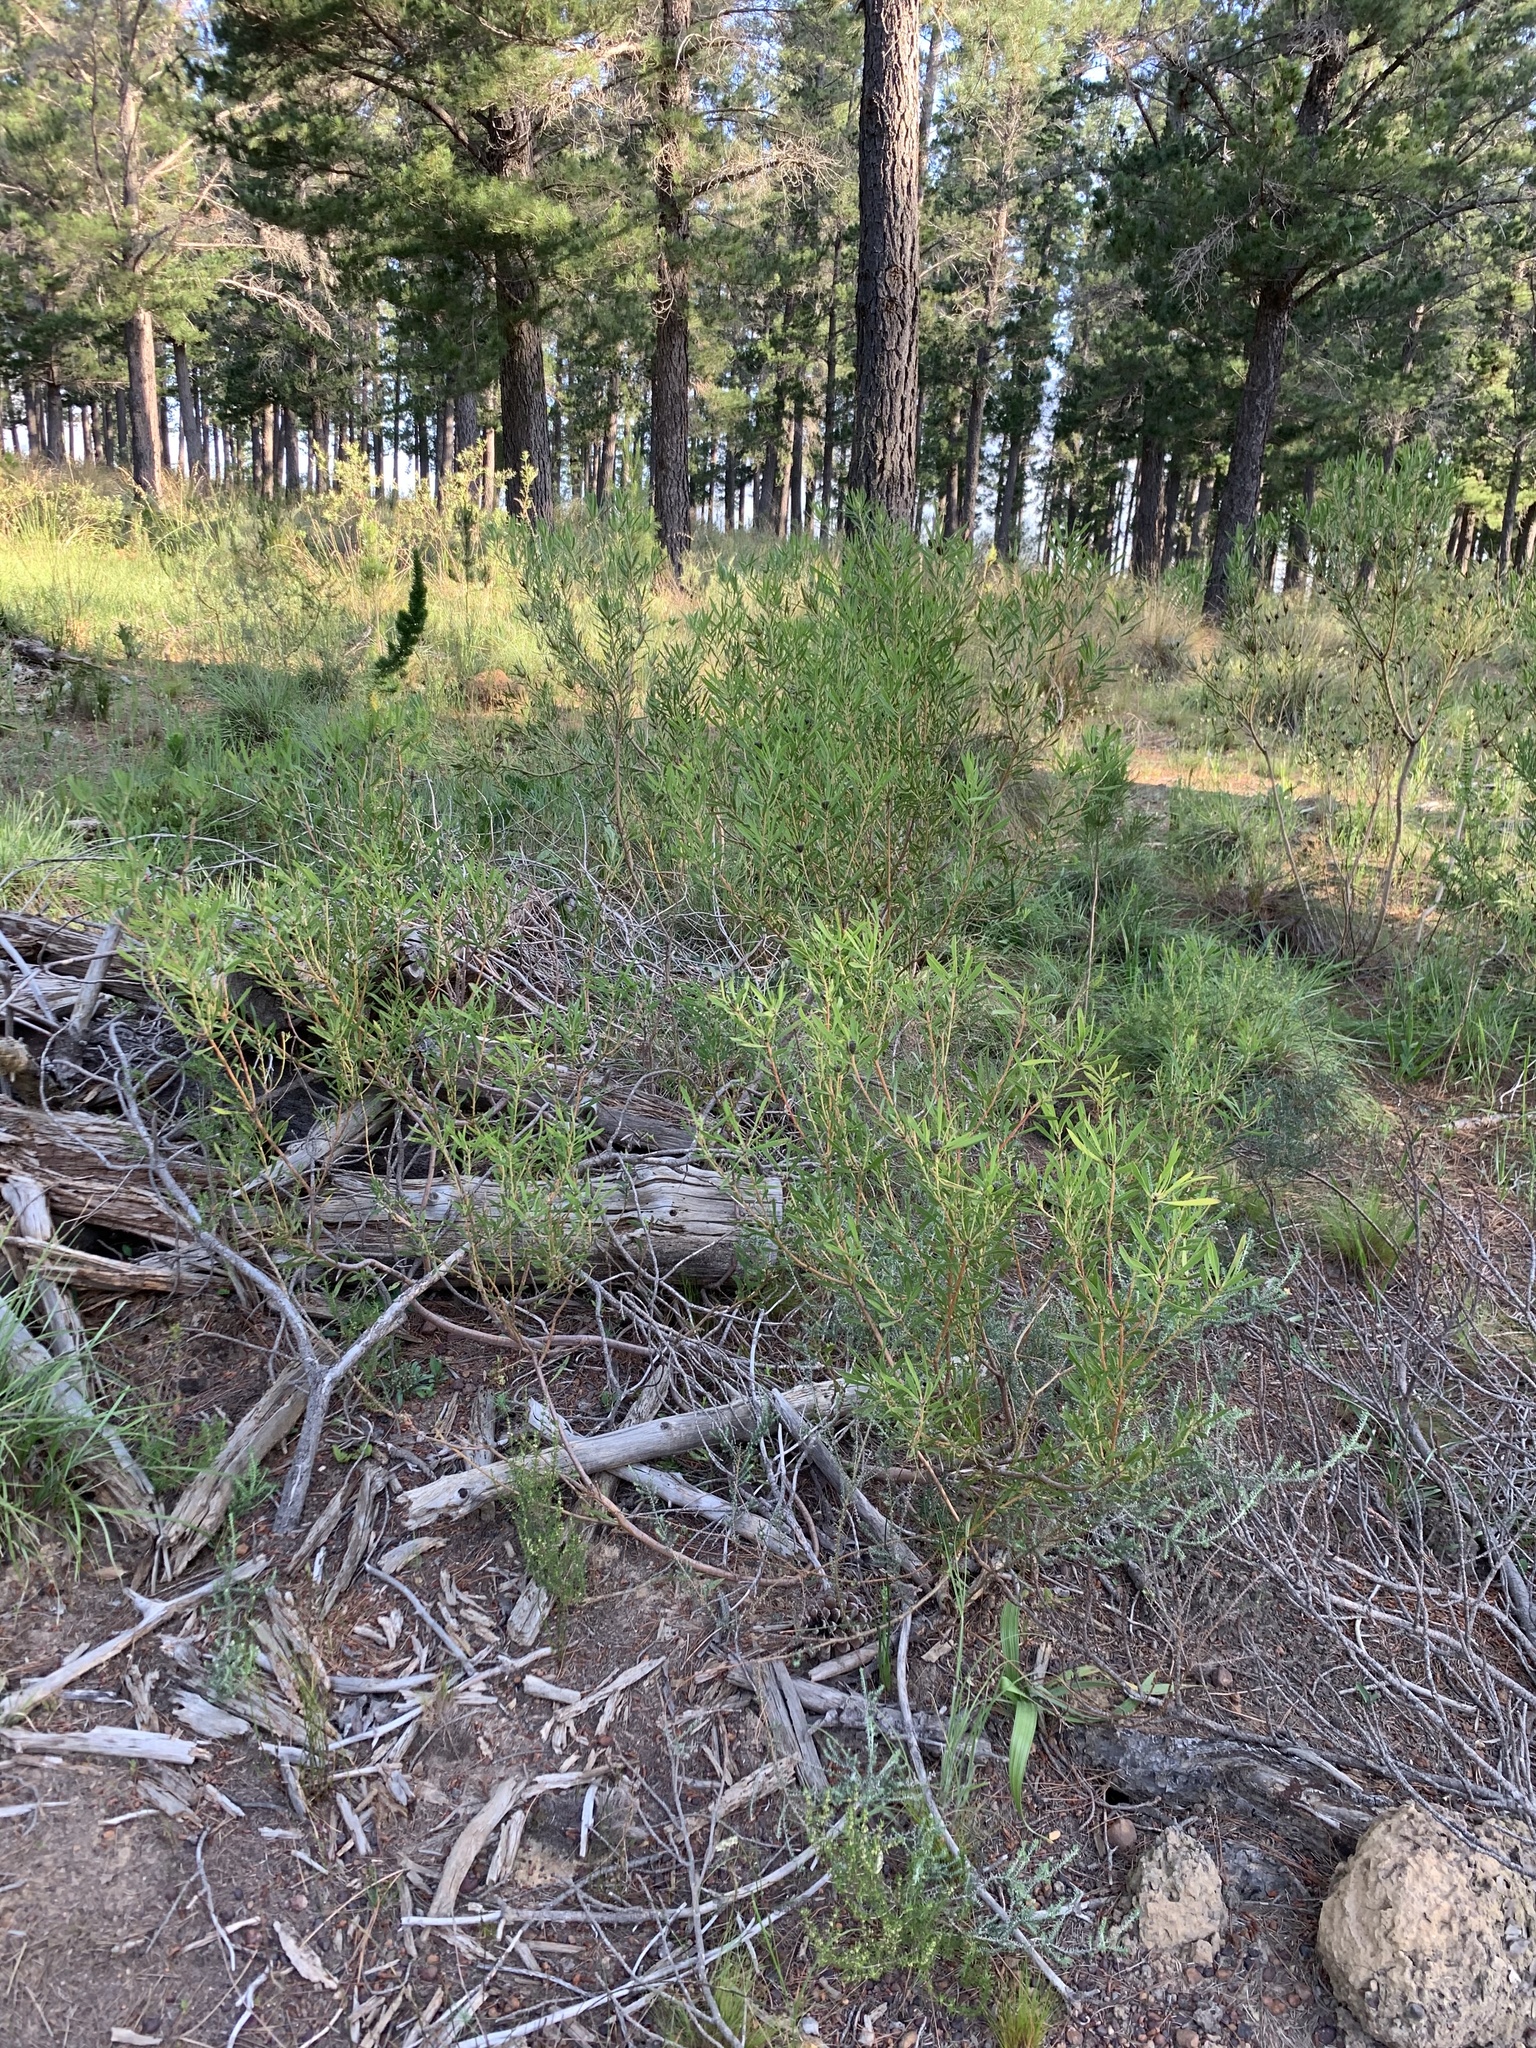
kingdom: Plantae
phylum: Tracheophyta
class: Magnoliopsida
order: Proteales
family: Proteaceae
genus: Leucadendron
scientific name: Leucadendron salignum
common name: Common sunshine conebush
